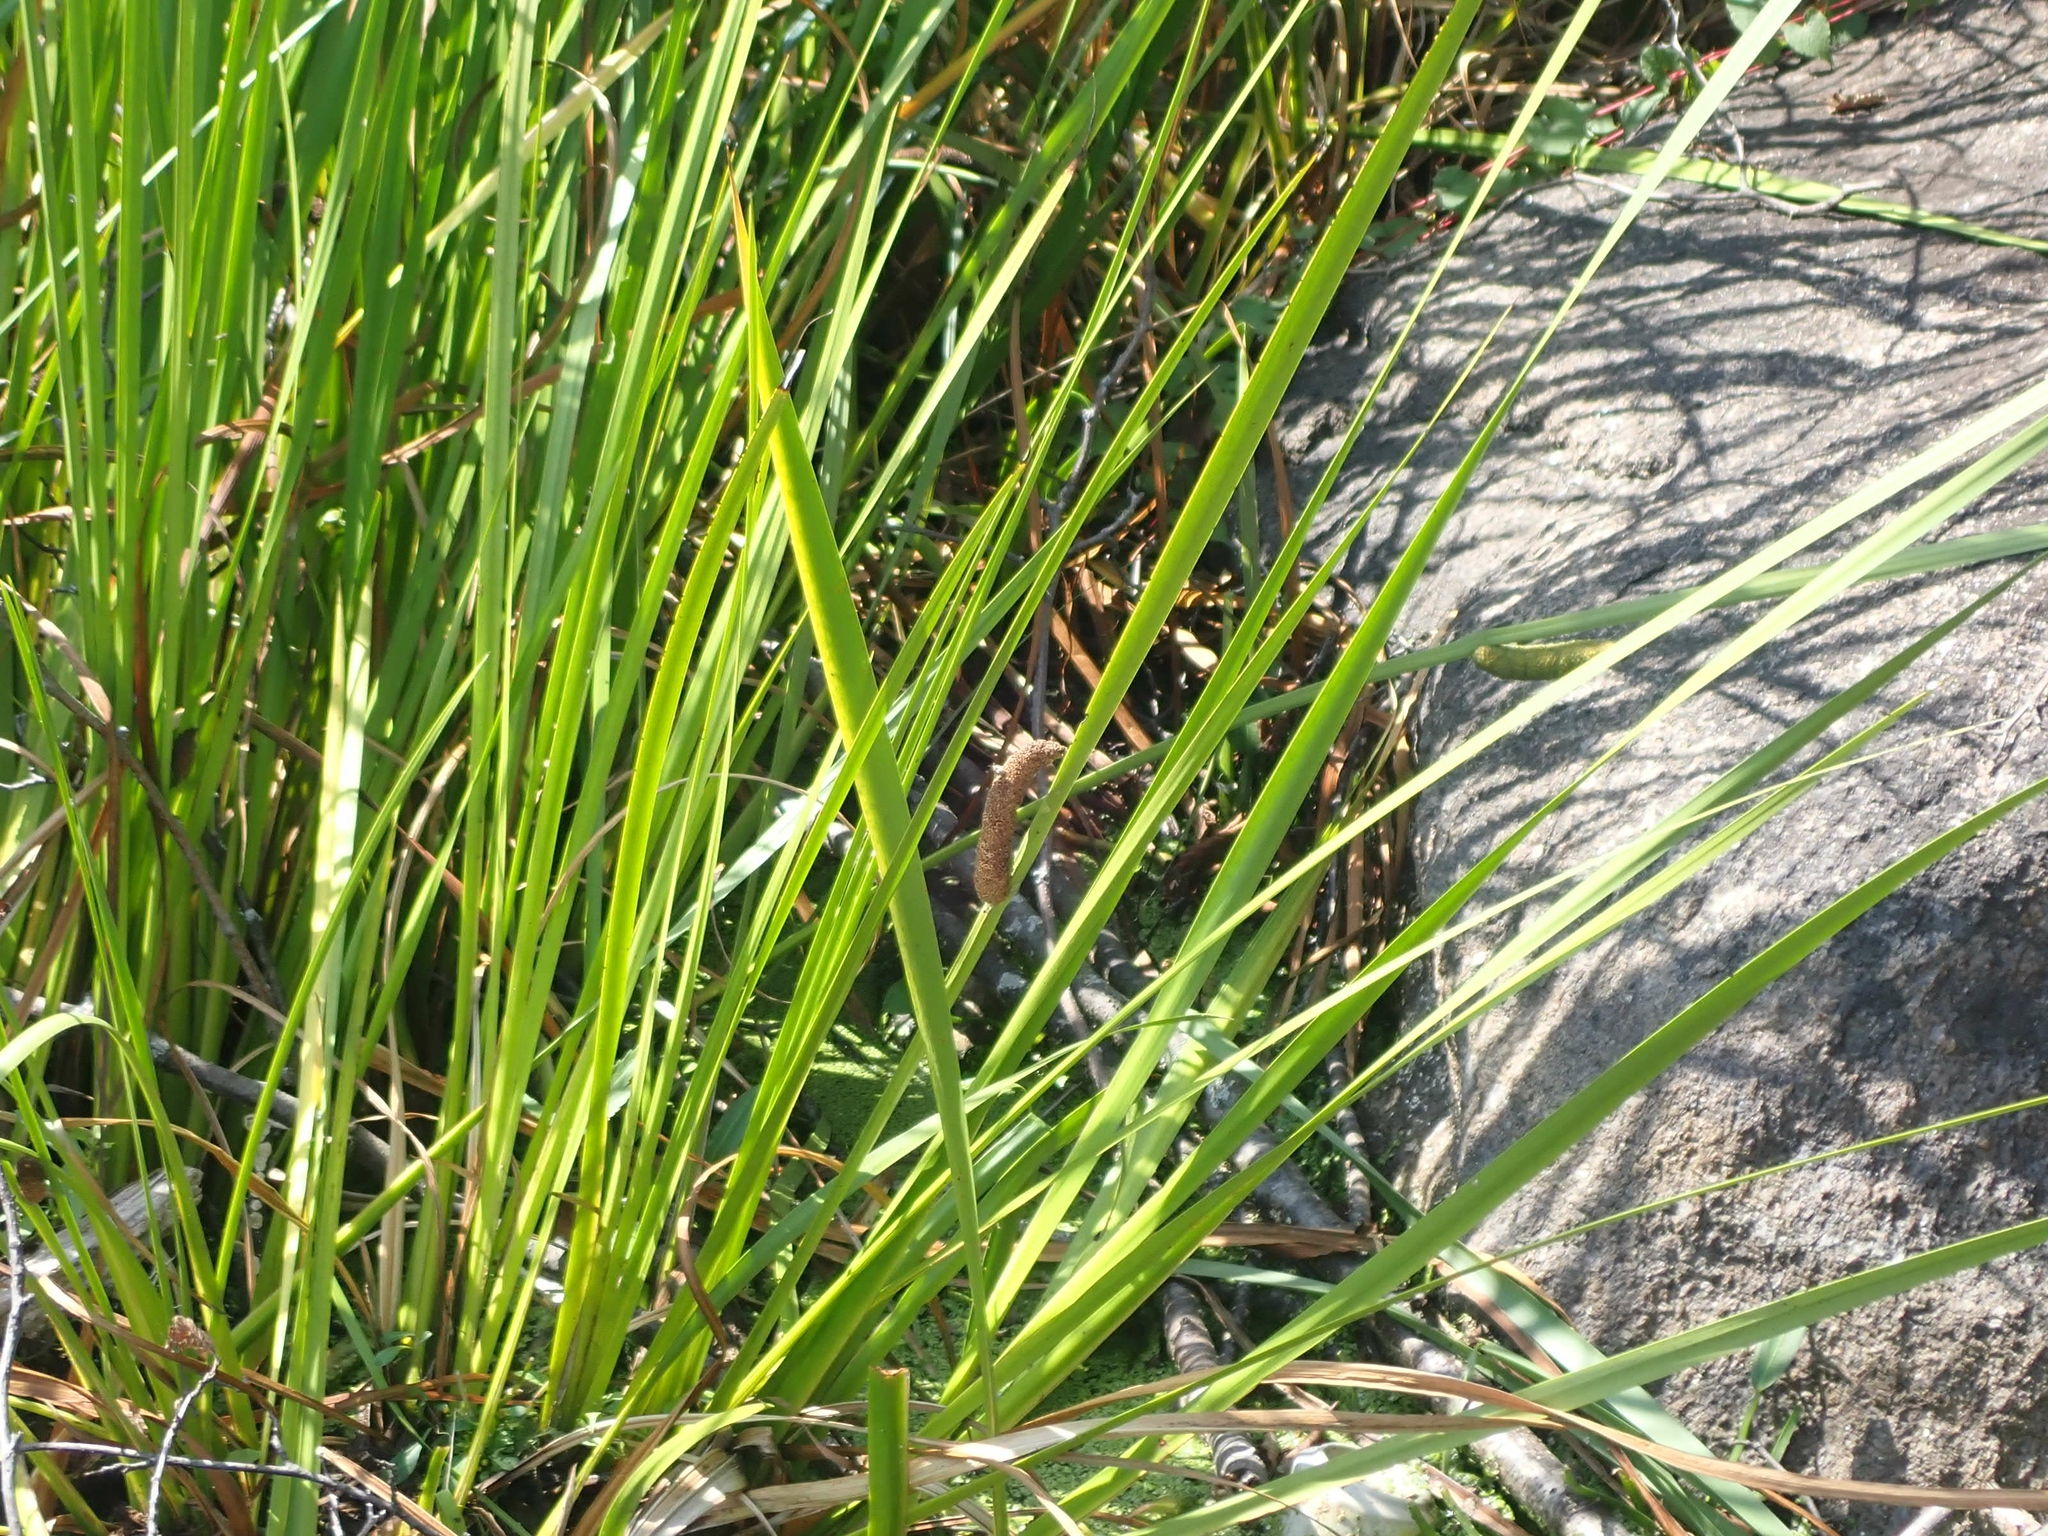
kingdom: Plantae
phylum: Tracheophyta
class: Liliopsida
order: Acorales
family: Acoraceae
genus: Acorus
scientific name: Acorus calamus
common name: Sweet-flag
